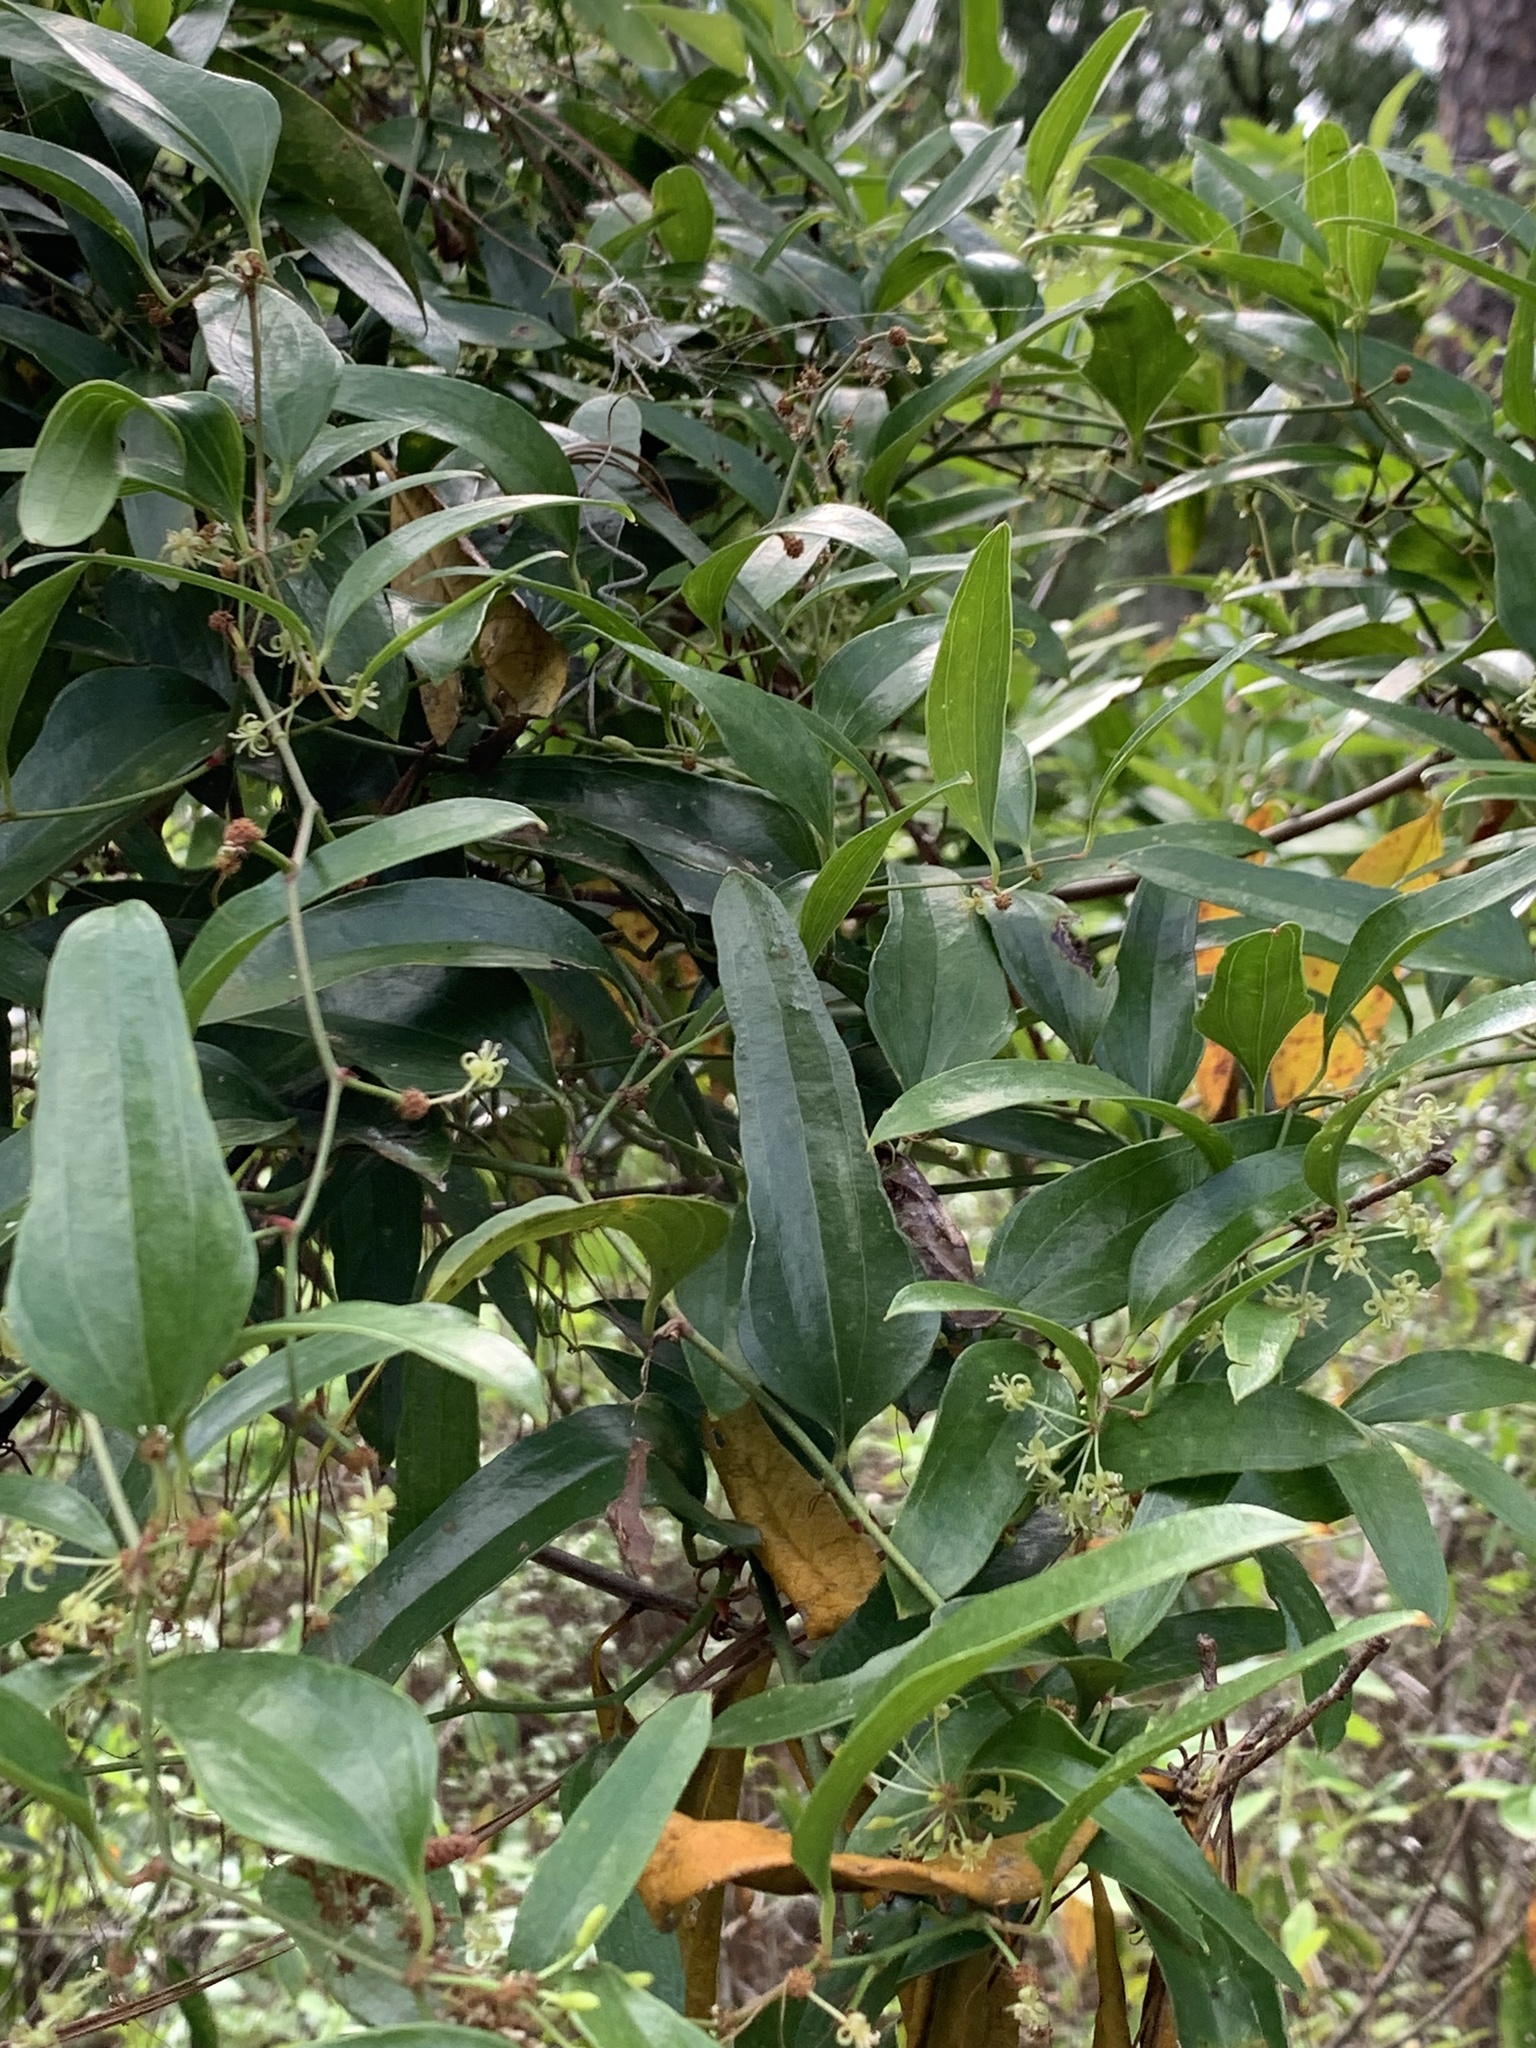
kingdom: Plantae
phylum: Tracheophyta
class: Liliopsida
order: Liliales
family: Smilacaceae
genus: Smilax
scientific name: Smilax auriculata
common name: Wild bamboo
